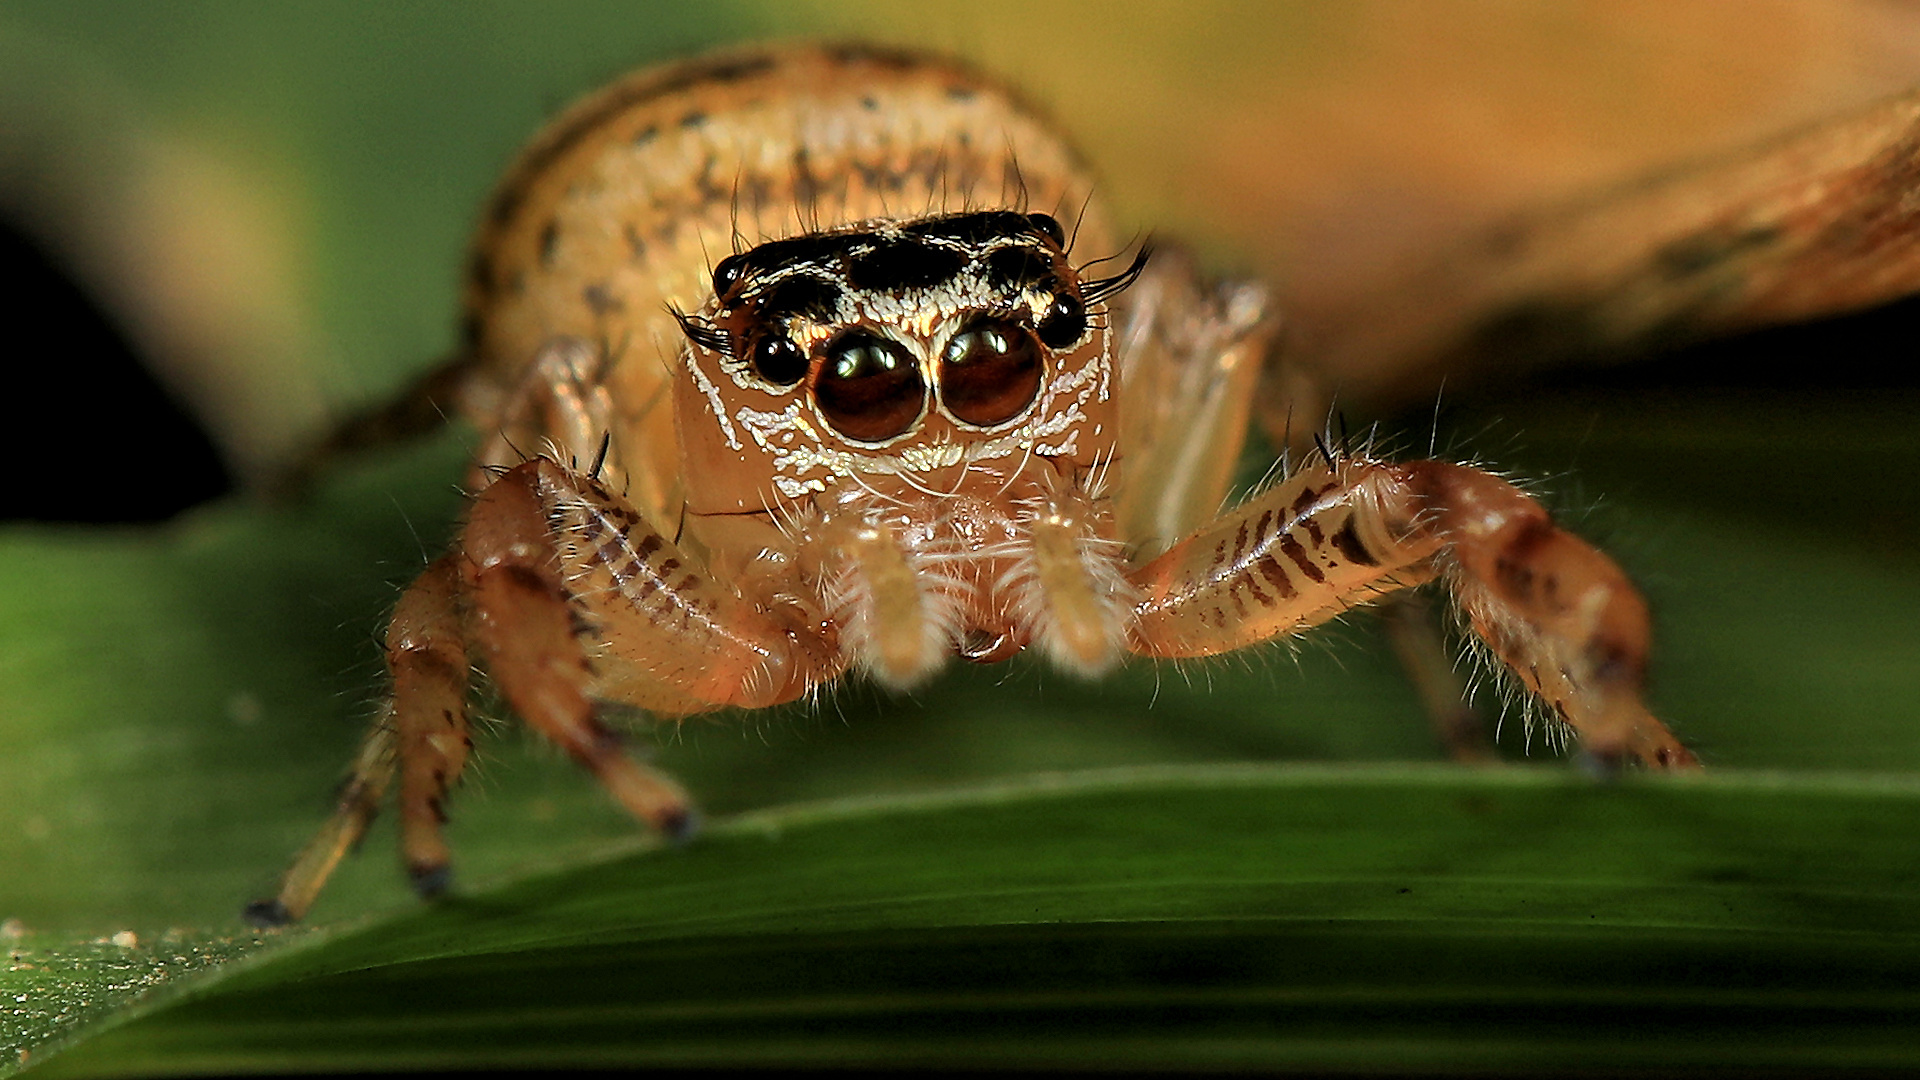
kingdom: Animalia
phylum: Arthropoda
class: Arachnida
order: Araneae
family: Salticidae
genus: Thyene
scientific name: Thyene natalii
